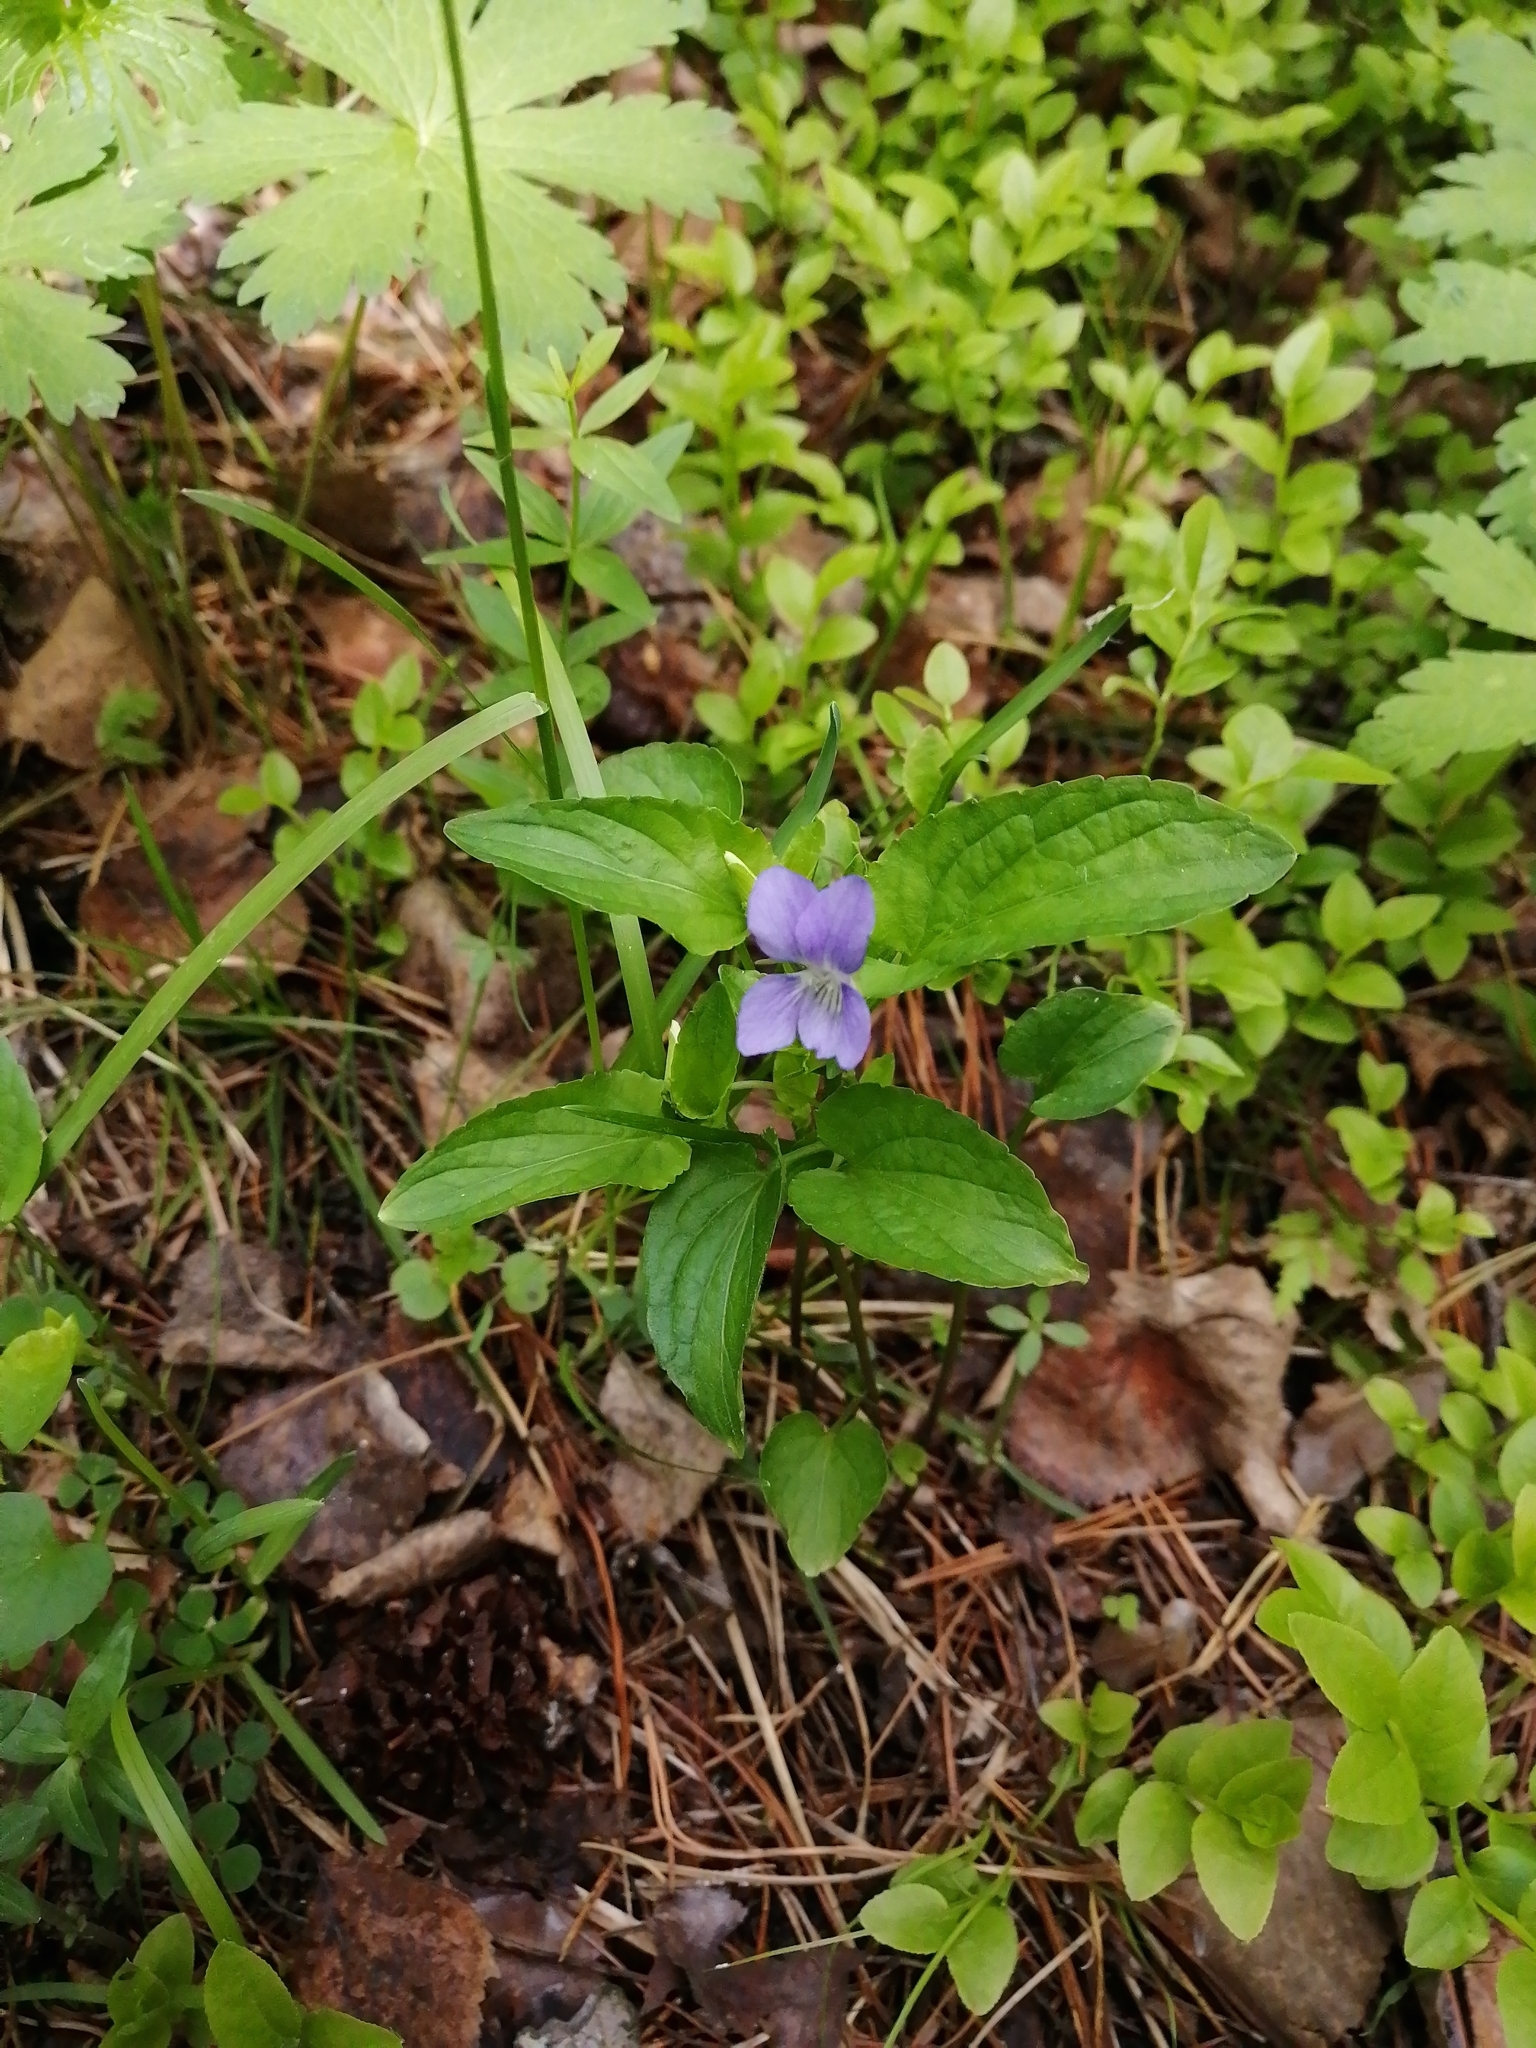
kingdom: Plantae
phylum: Tracheophyta
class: Magnoliopsida
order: Malpighiales
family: Violaceae
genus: Viola
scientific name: Viola
